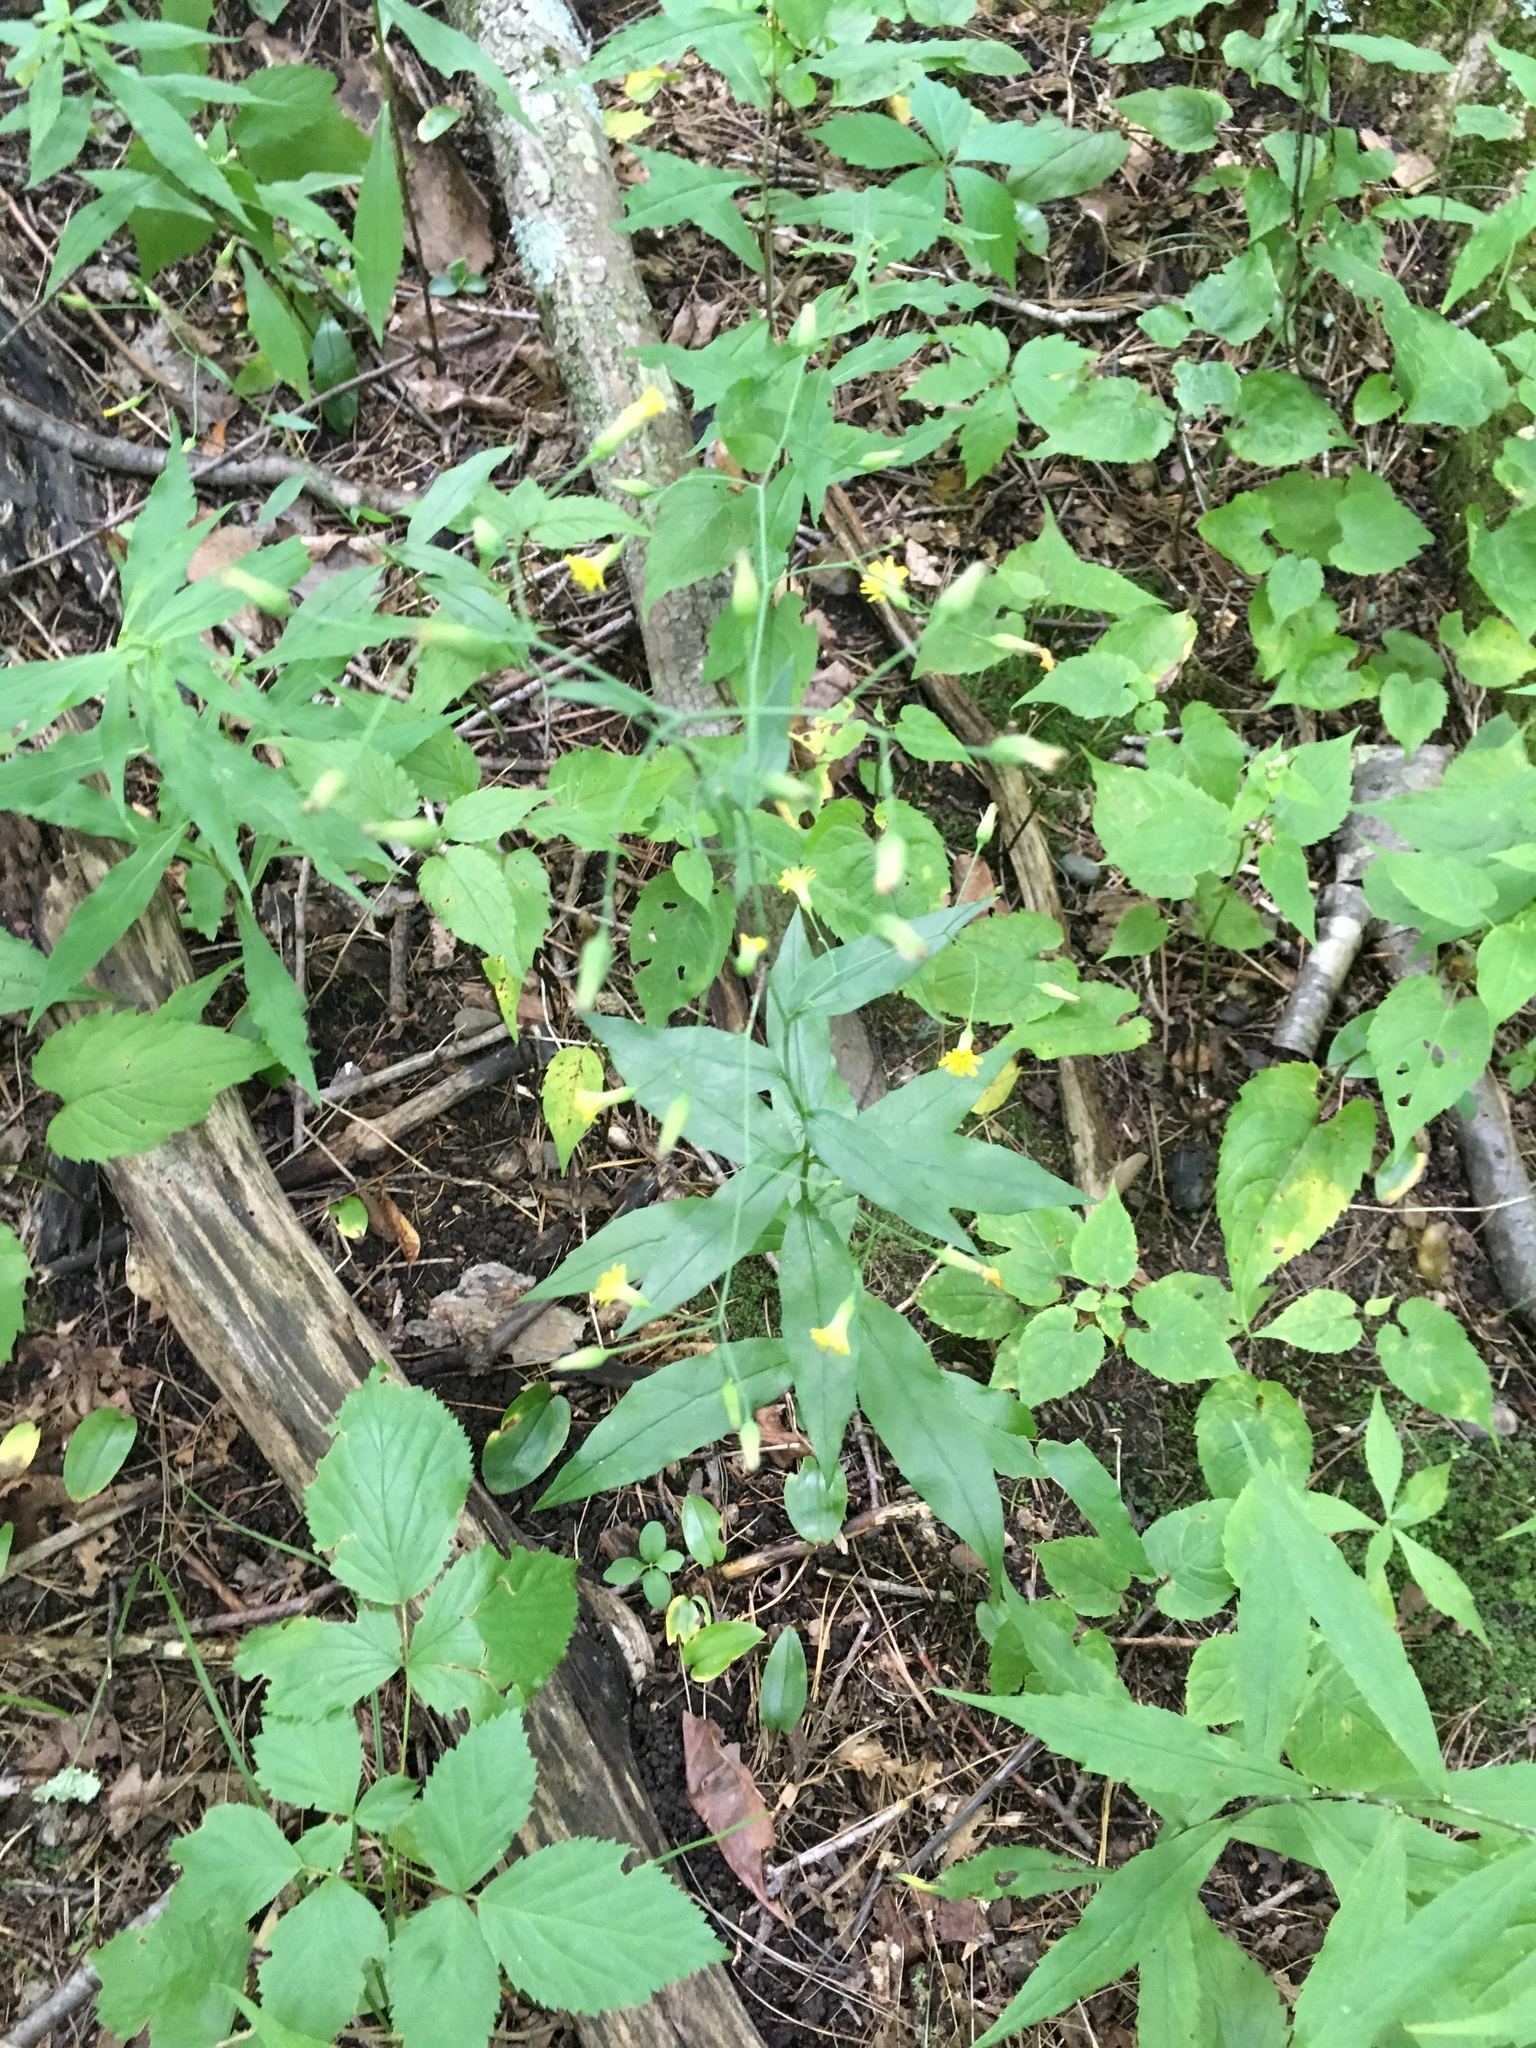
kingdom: Plantae
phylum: Tracheophyta
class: Magnoliopsida
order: Asterales
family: Asteraceae
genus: Hieracium
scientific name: Hieracium paniculatum
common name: Allegheny hawkweed
